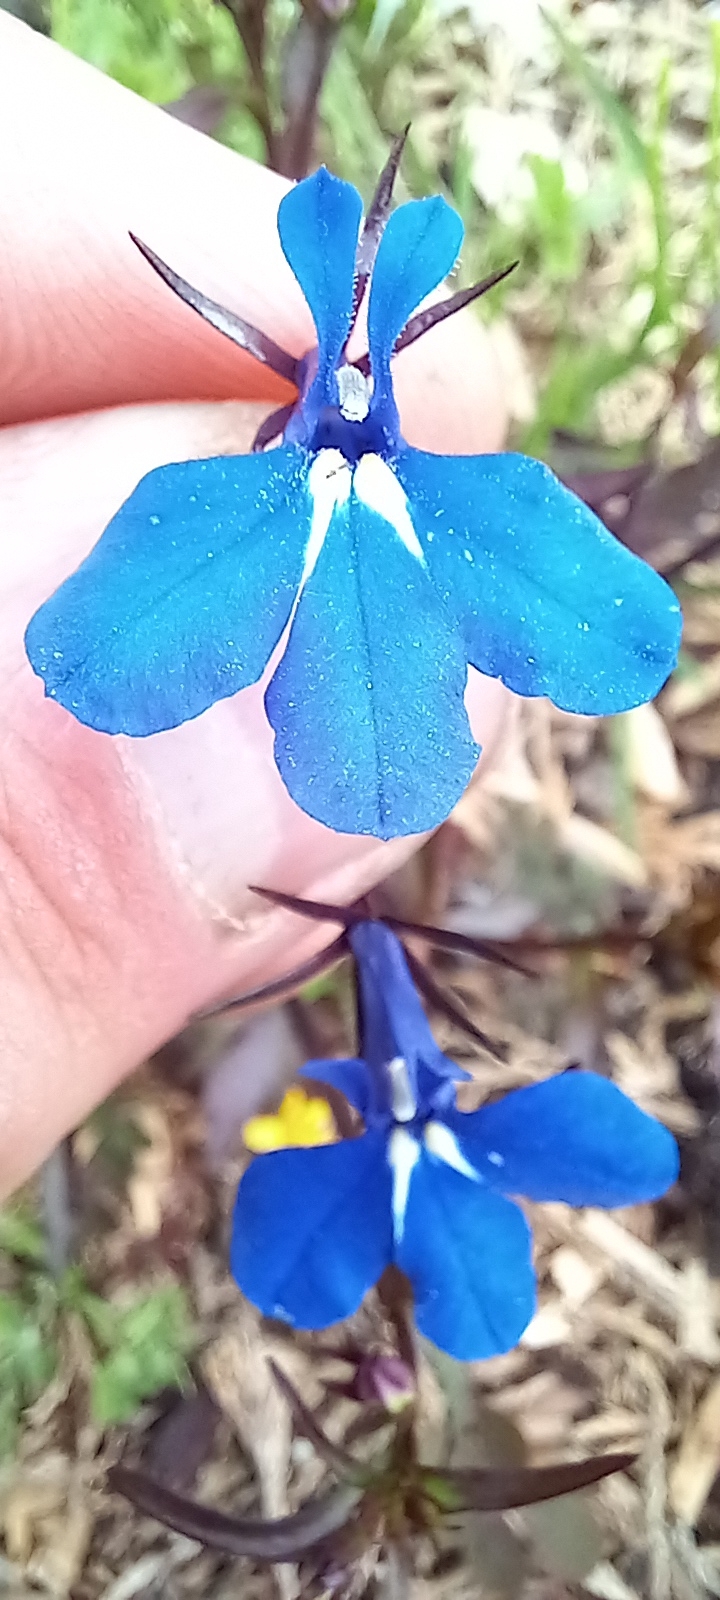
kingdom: Plantae
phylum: Tracheophyta
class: Magnoliopsida
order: Asterales
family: Campanulaceae
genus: Lobelia
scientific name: Lobelia erinus
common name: Edging lobelia
